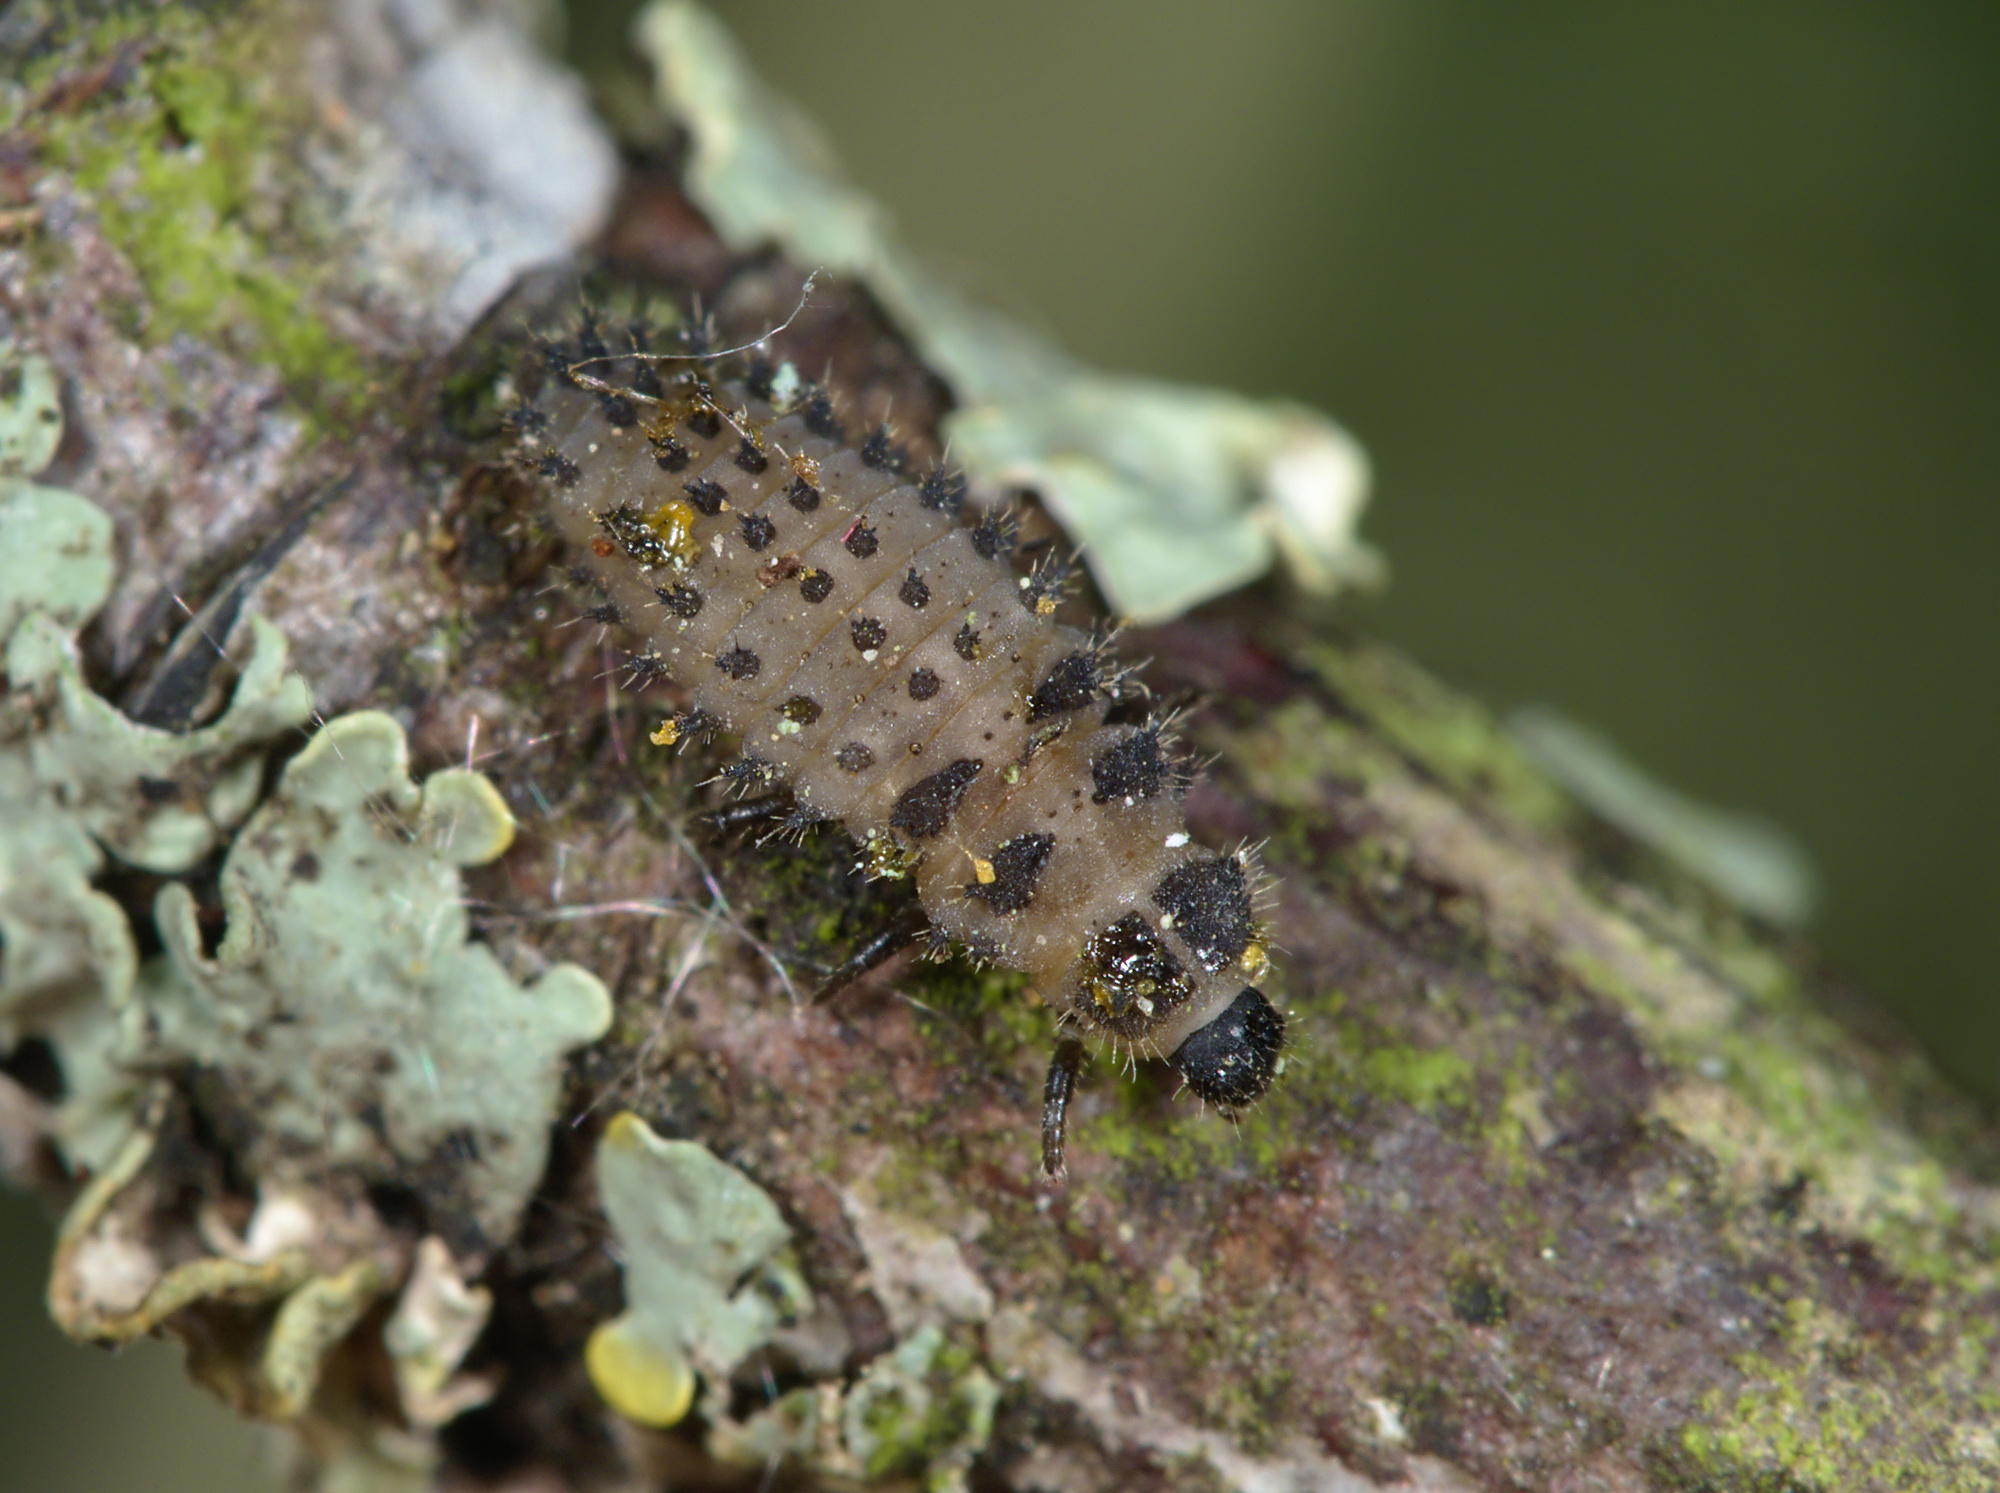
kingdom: Animalia
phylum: Arthropoda
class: Insecta
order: Coleoptera
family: Coccinellidae
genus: Brumus
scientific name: Brumus quadripustulatus
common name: Ladybird beetle
